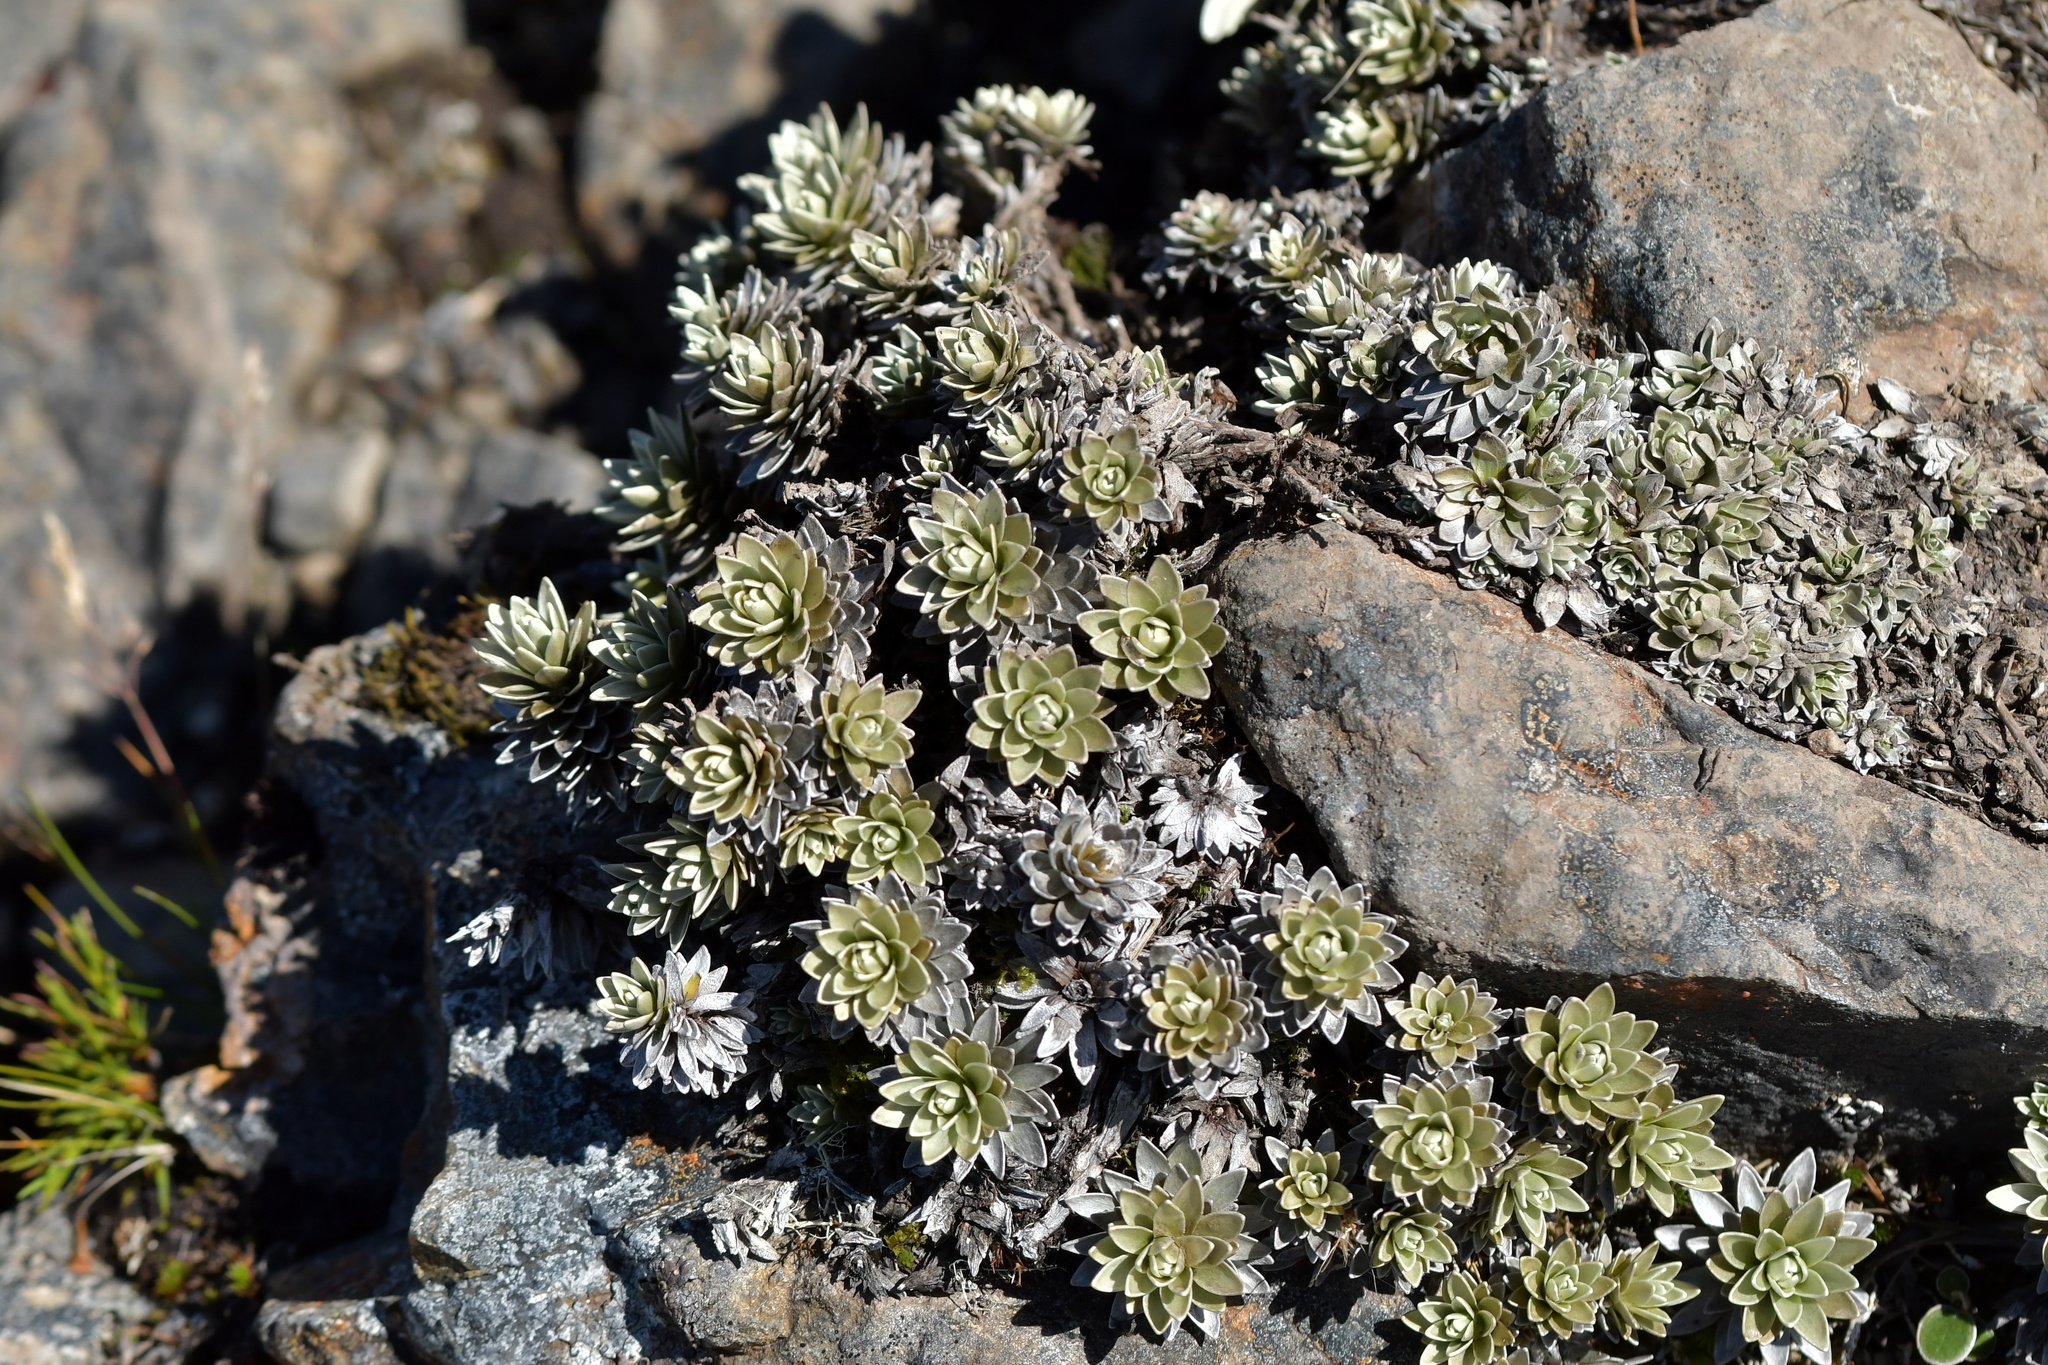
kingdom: Plantae
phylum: Tracheophyta
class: Magnoliopsida
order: Asterales
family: Asteraceae
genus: Leucogenes
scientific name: Leucogenes leontopodium
